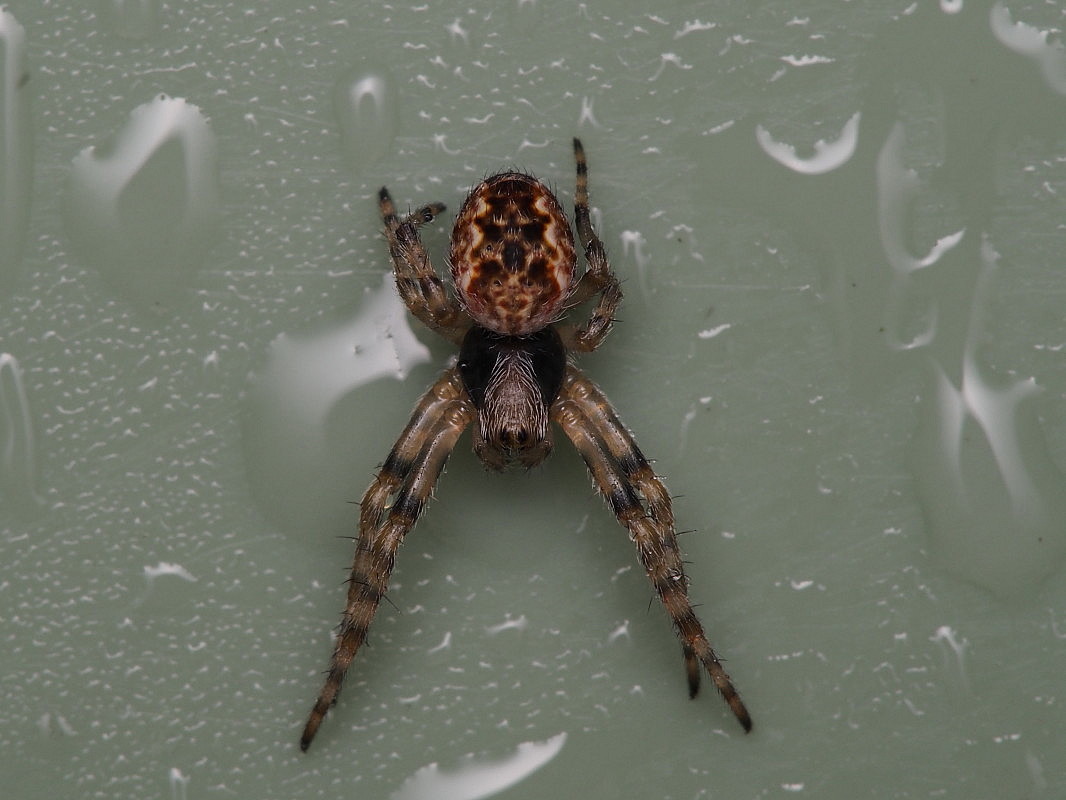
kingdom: Animalia
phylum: Arthropoda
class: Arachnida
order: Araneae
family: Araneidae
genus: Salsa
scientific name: Salsa fuliginata
